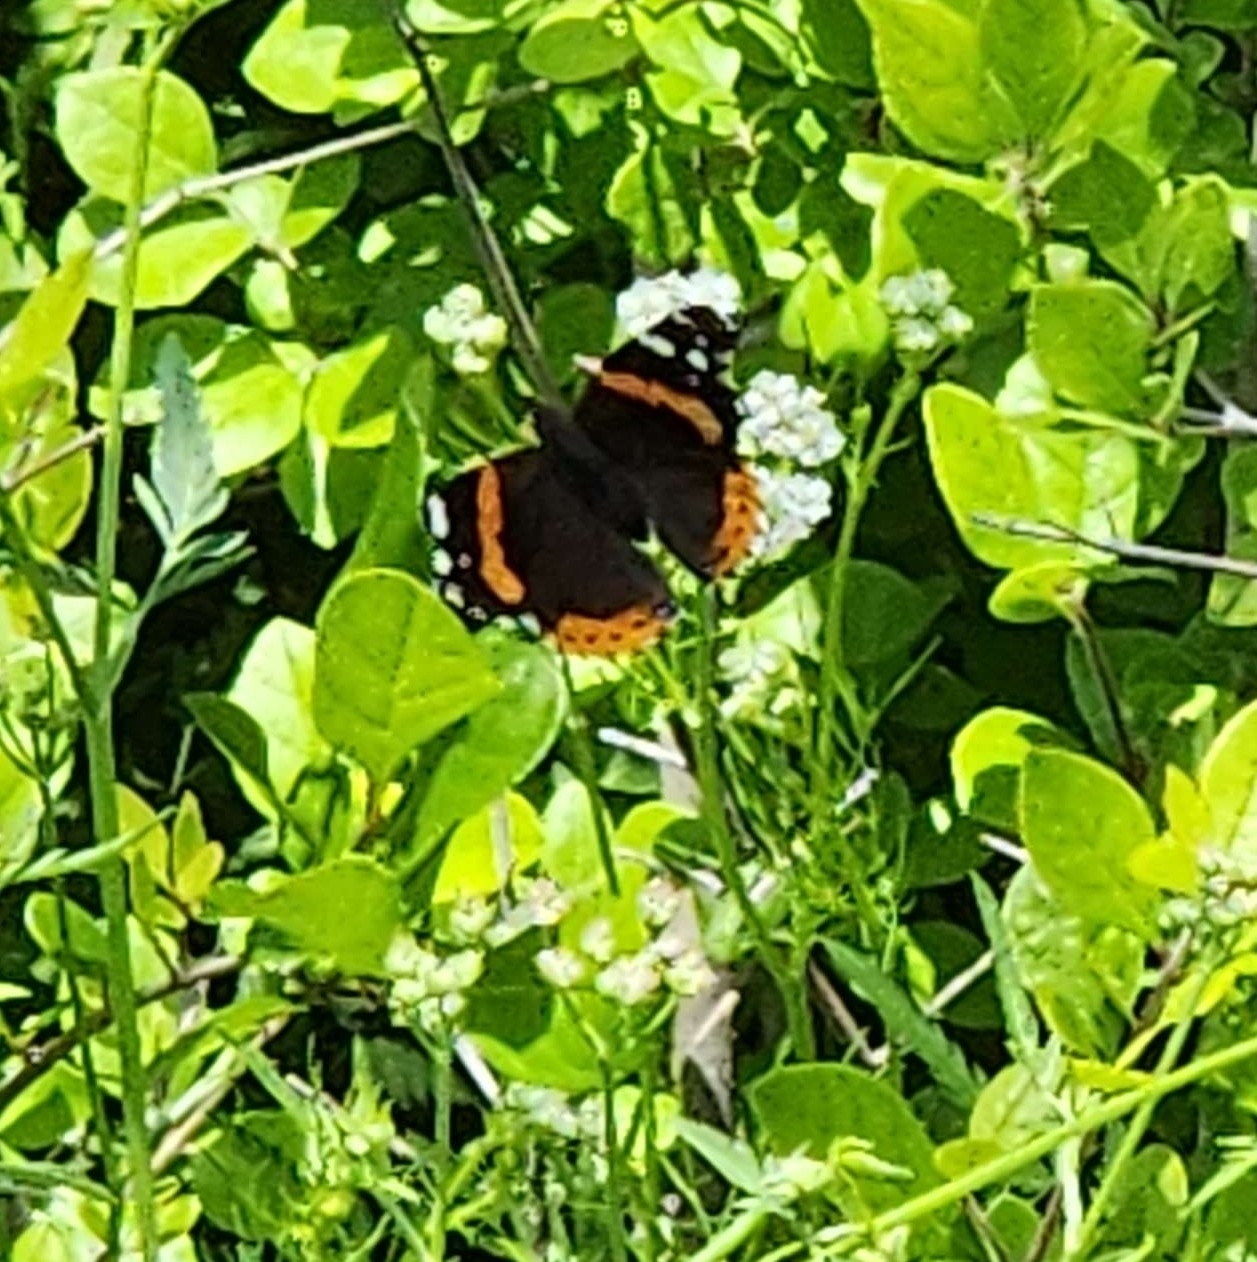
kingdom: Animalia
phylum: Arthropoda
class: Insecta
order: Lepidoptera
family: Nymphalidae
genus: Vanessa
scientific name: Vanessa atalanta
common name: Red admiral
